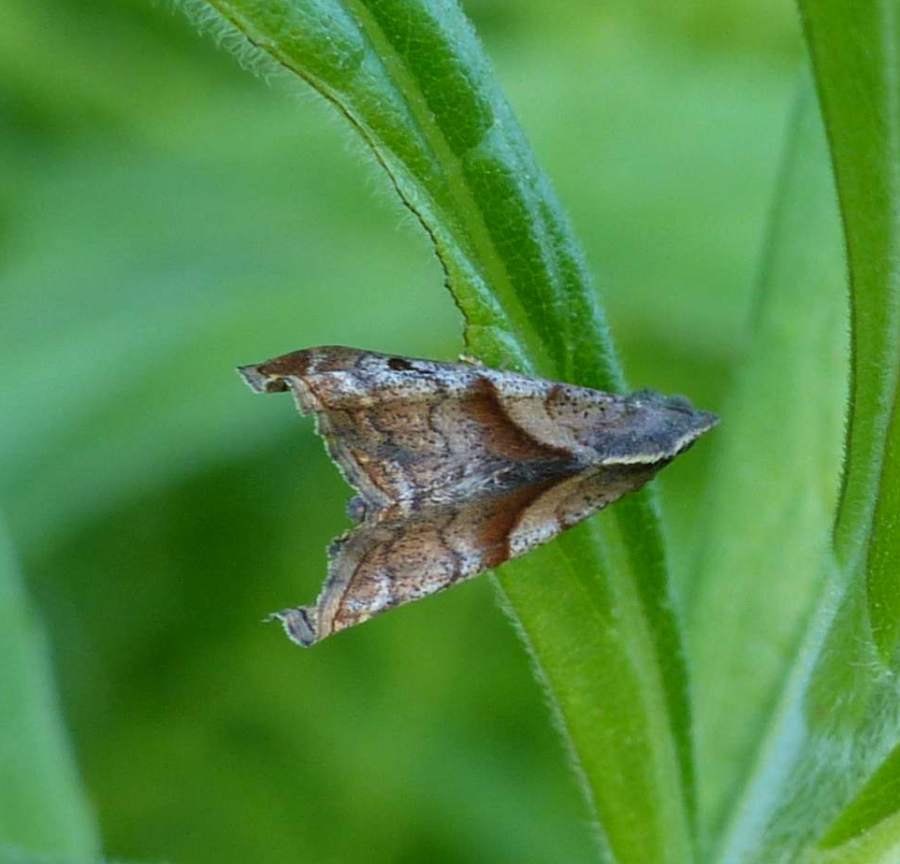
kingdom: Animalia
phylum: Arthropoda
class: Insecta
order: Lepidoptera
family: Erebidae
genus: Palthis
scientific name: Palthis angulalis
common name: Dark-spotted palthis moth
